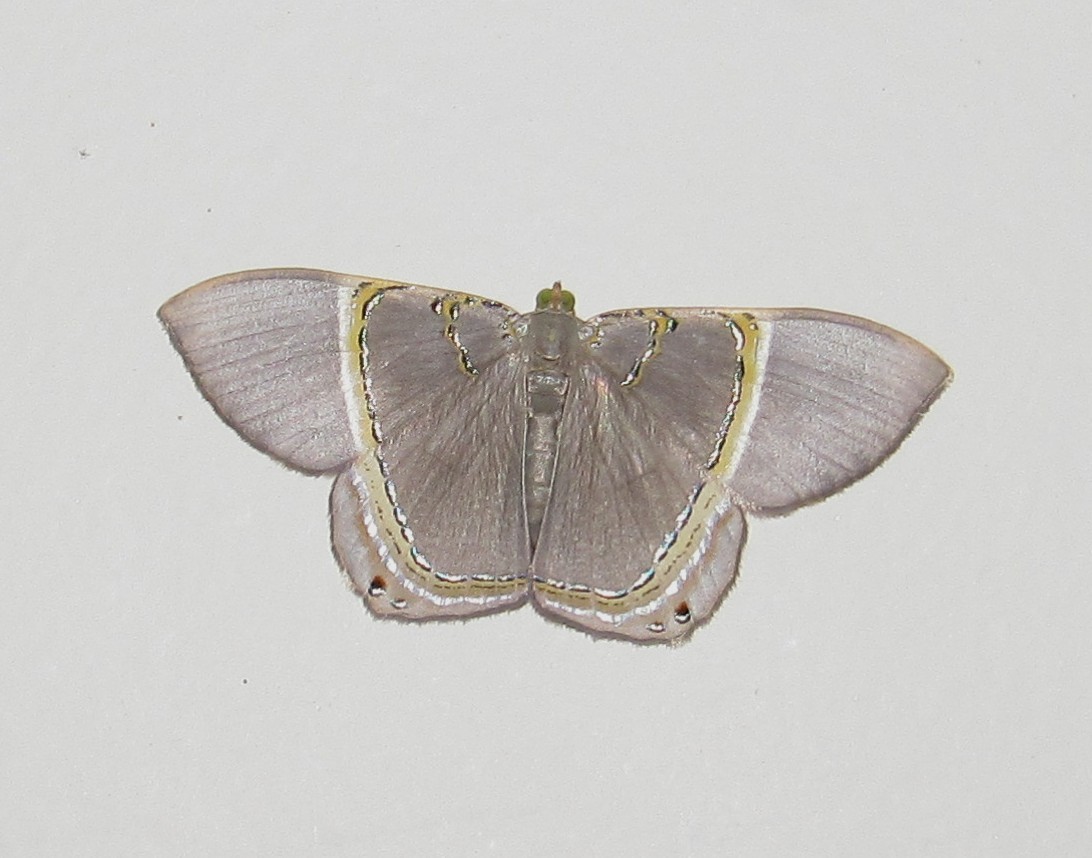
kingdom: Animalia
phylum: Arthropoda
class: Insecta
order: Lepidoptera
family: Geometridae
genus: Phrygionis
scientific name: Phrygionis paradoxata
